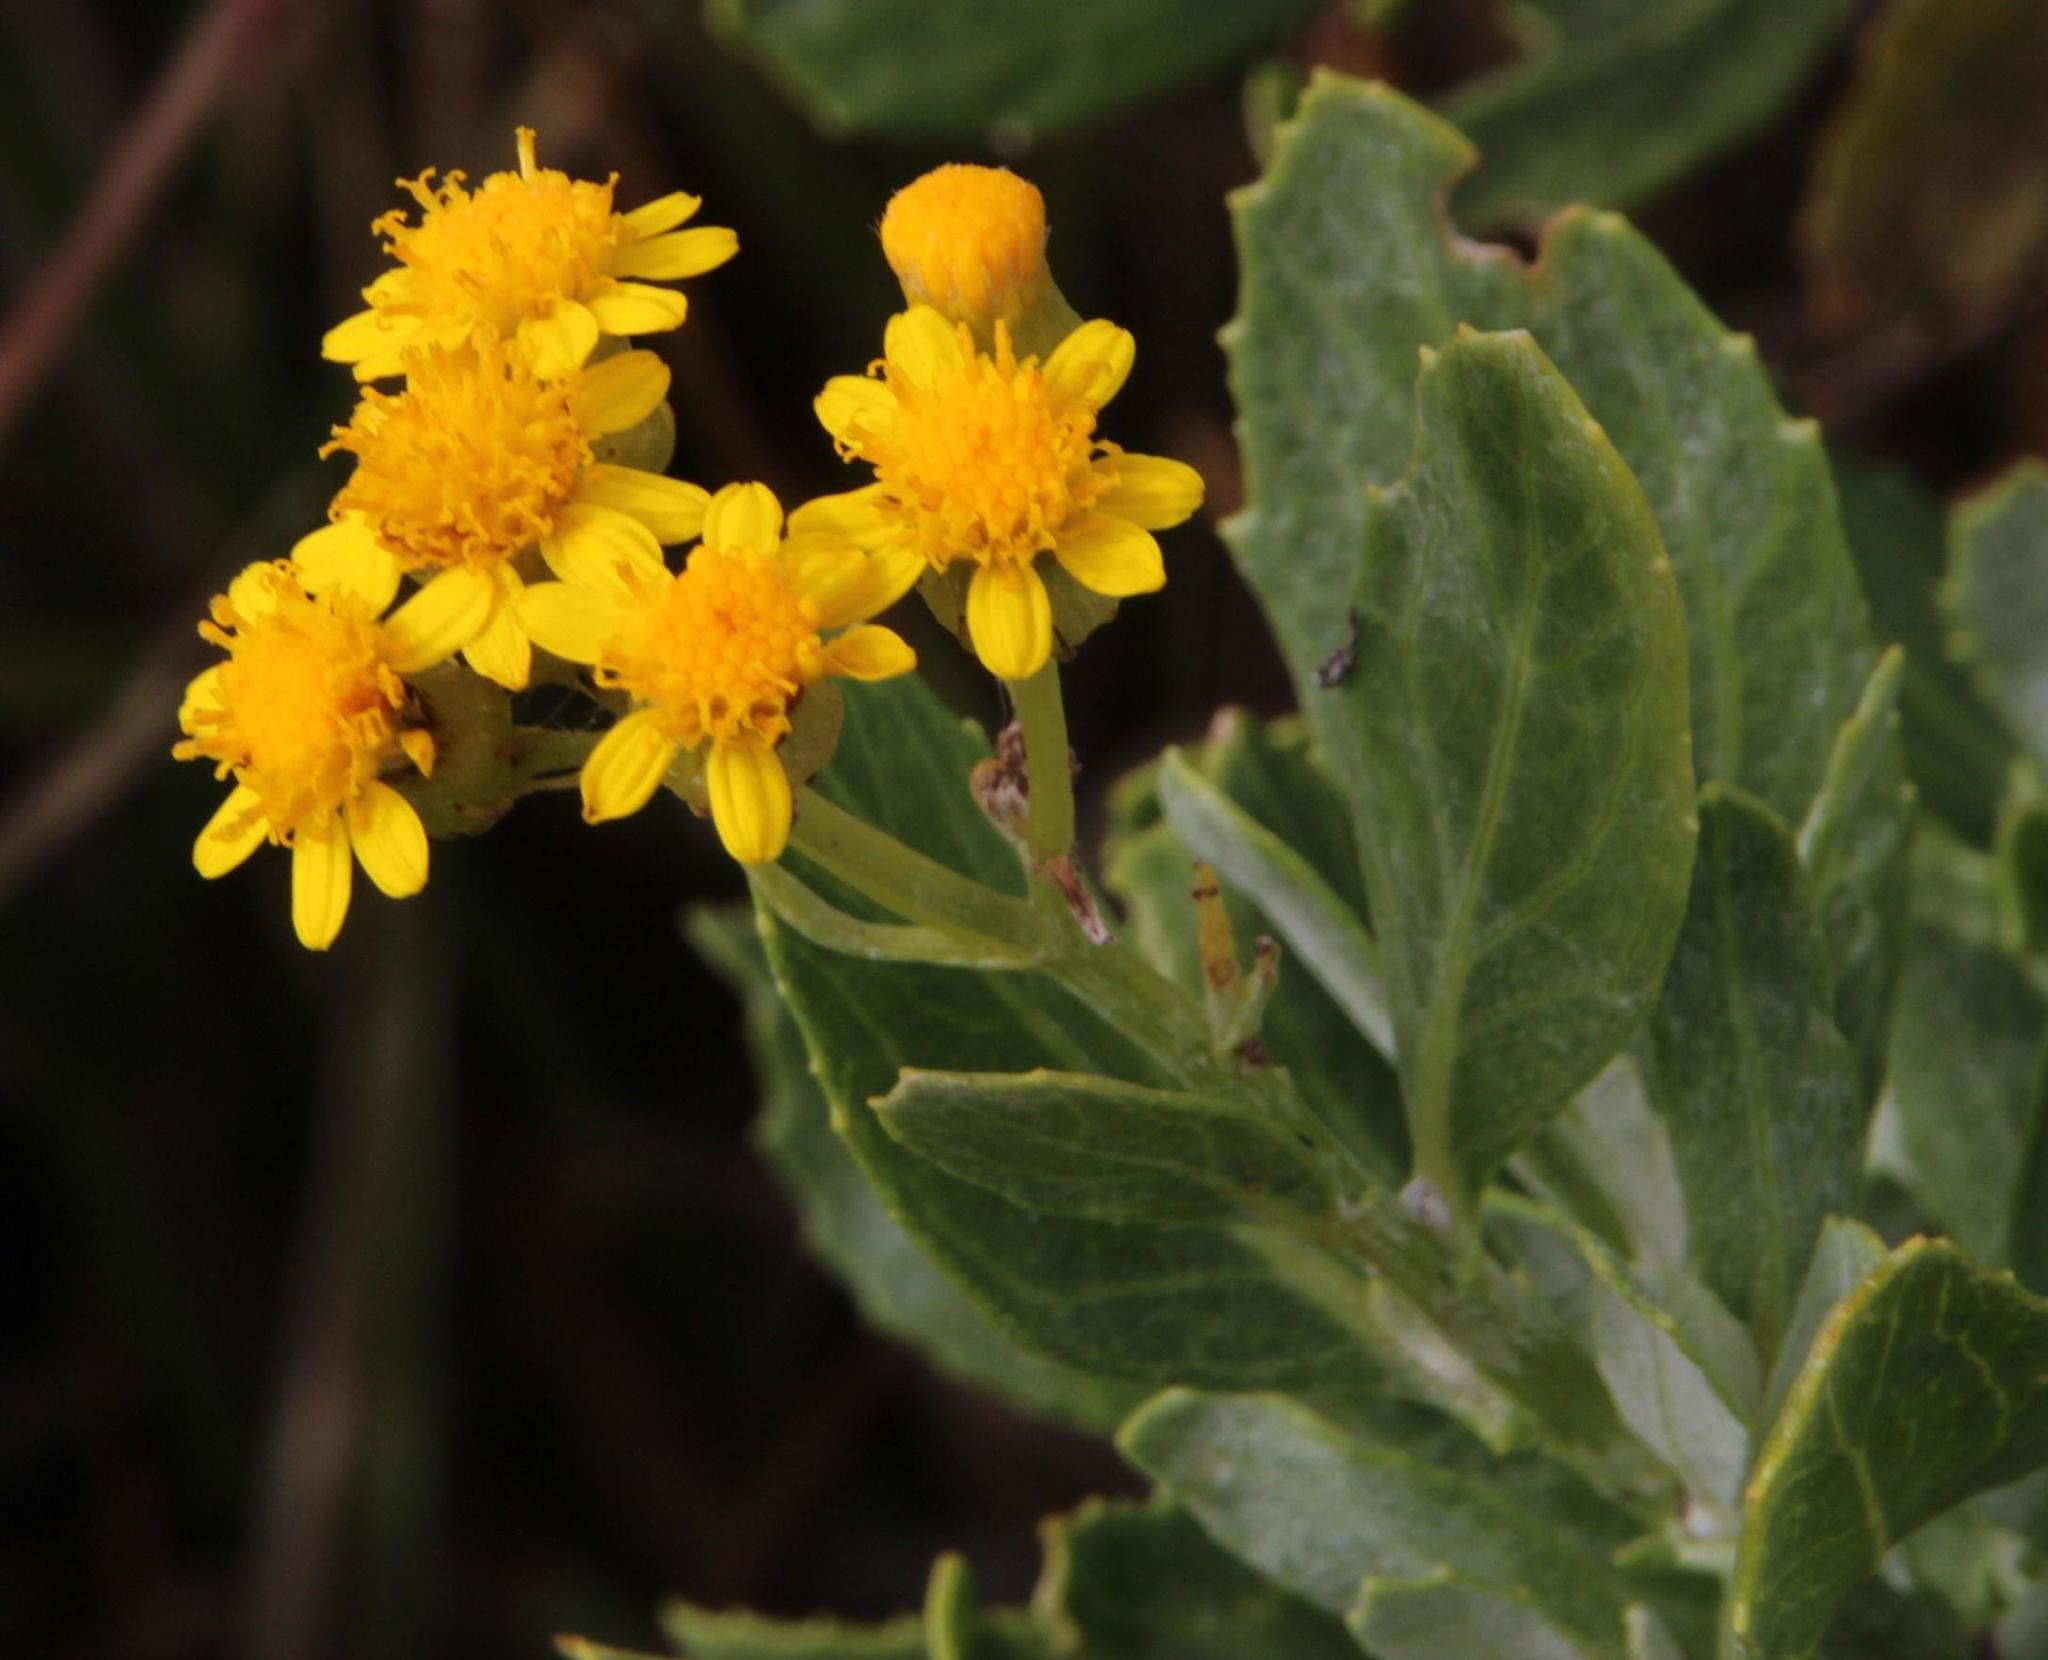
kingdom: Plantae
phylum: Tracheophyta
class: Magnoliopsida
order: Asterales
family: Asteraceae
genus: Senecio
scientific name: Senecio halimifolius
